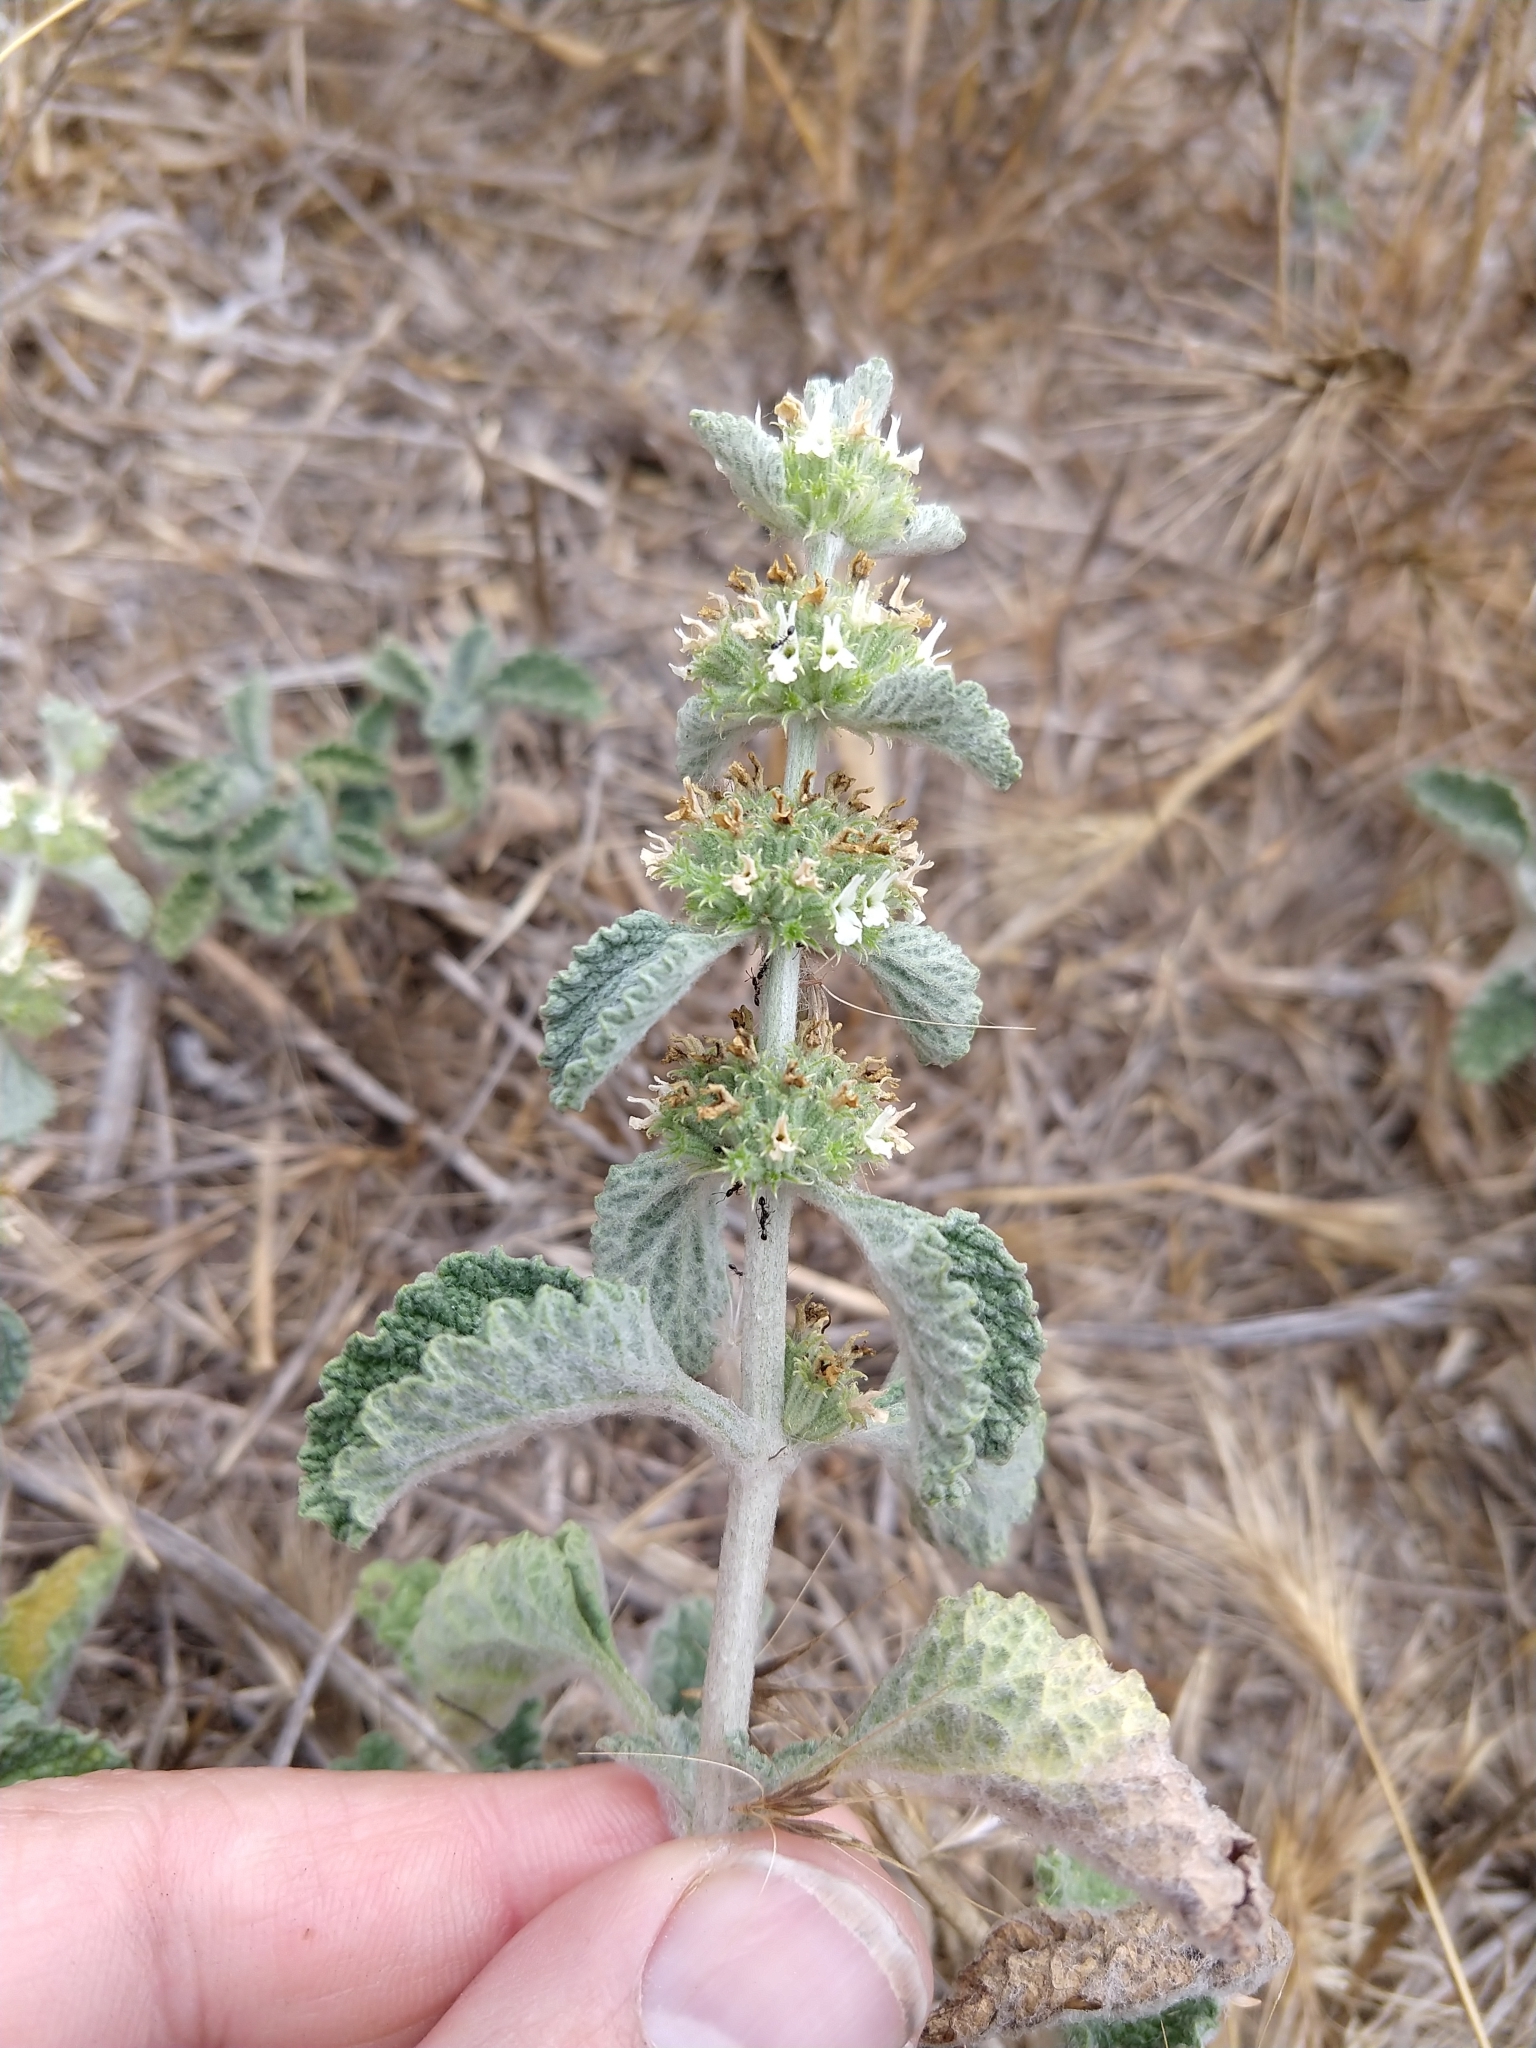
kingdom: Plantae
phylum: Tracheophyta
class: Magnoliopsida
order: Lamiales
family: Lamiaceae
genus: Marrubium
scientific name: Marrubium vulgare
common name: Horehound
